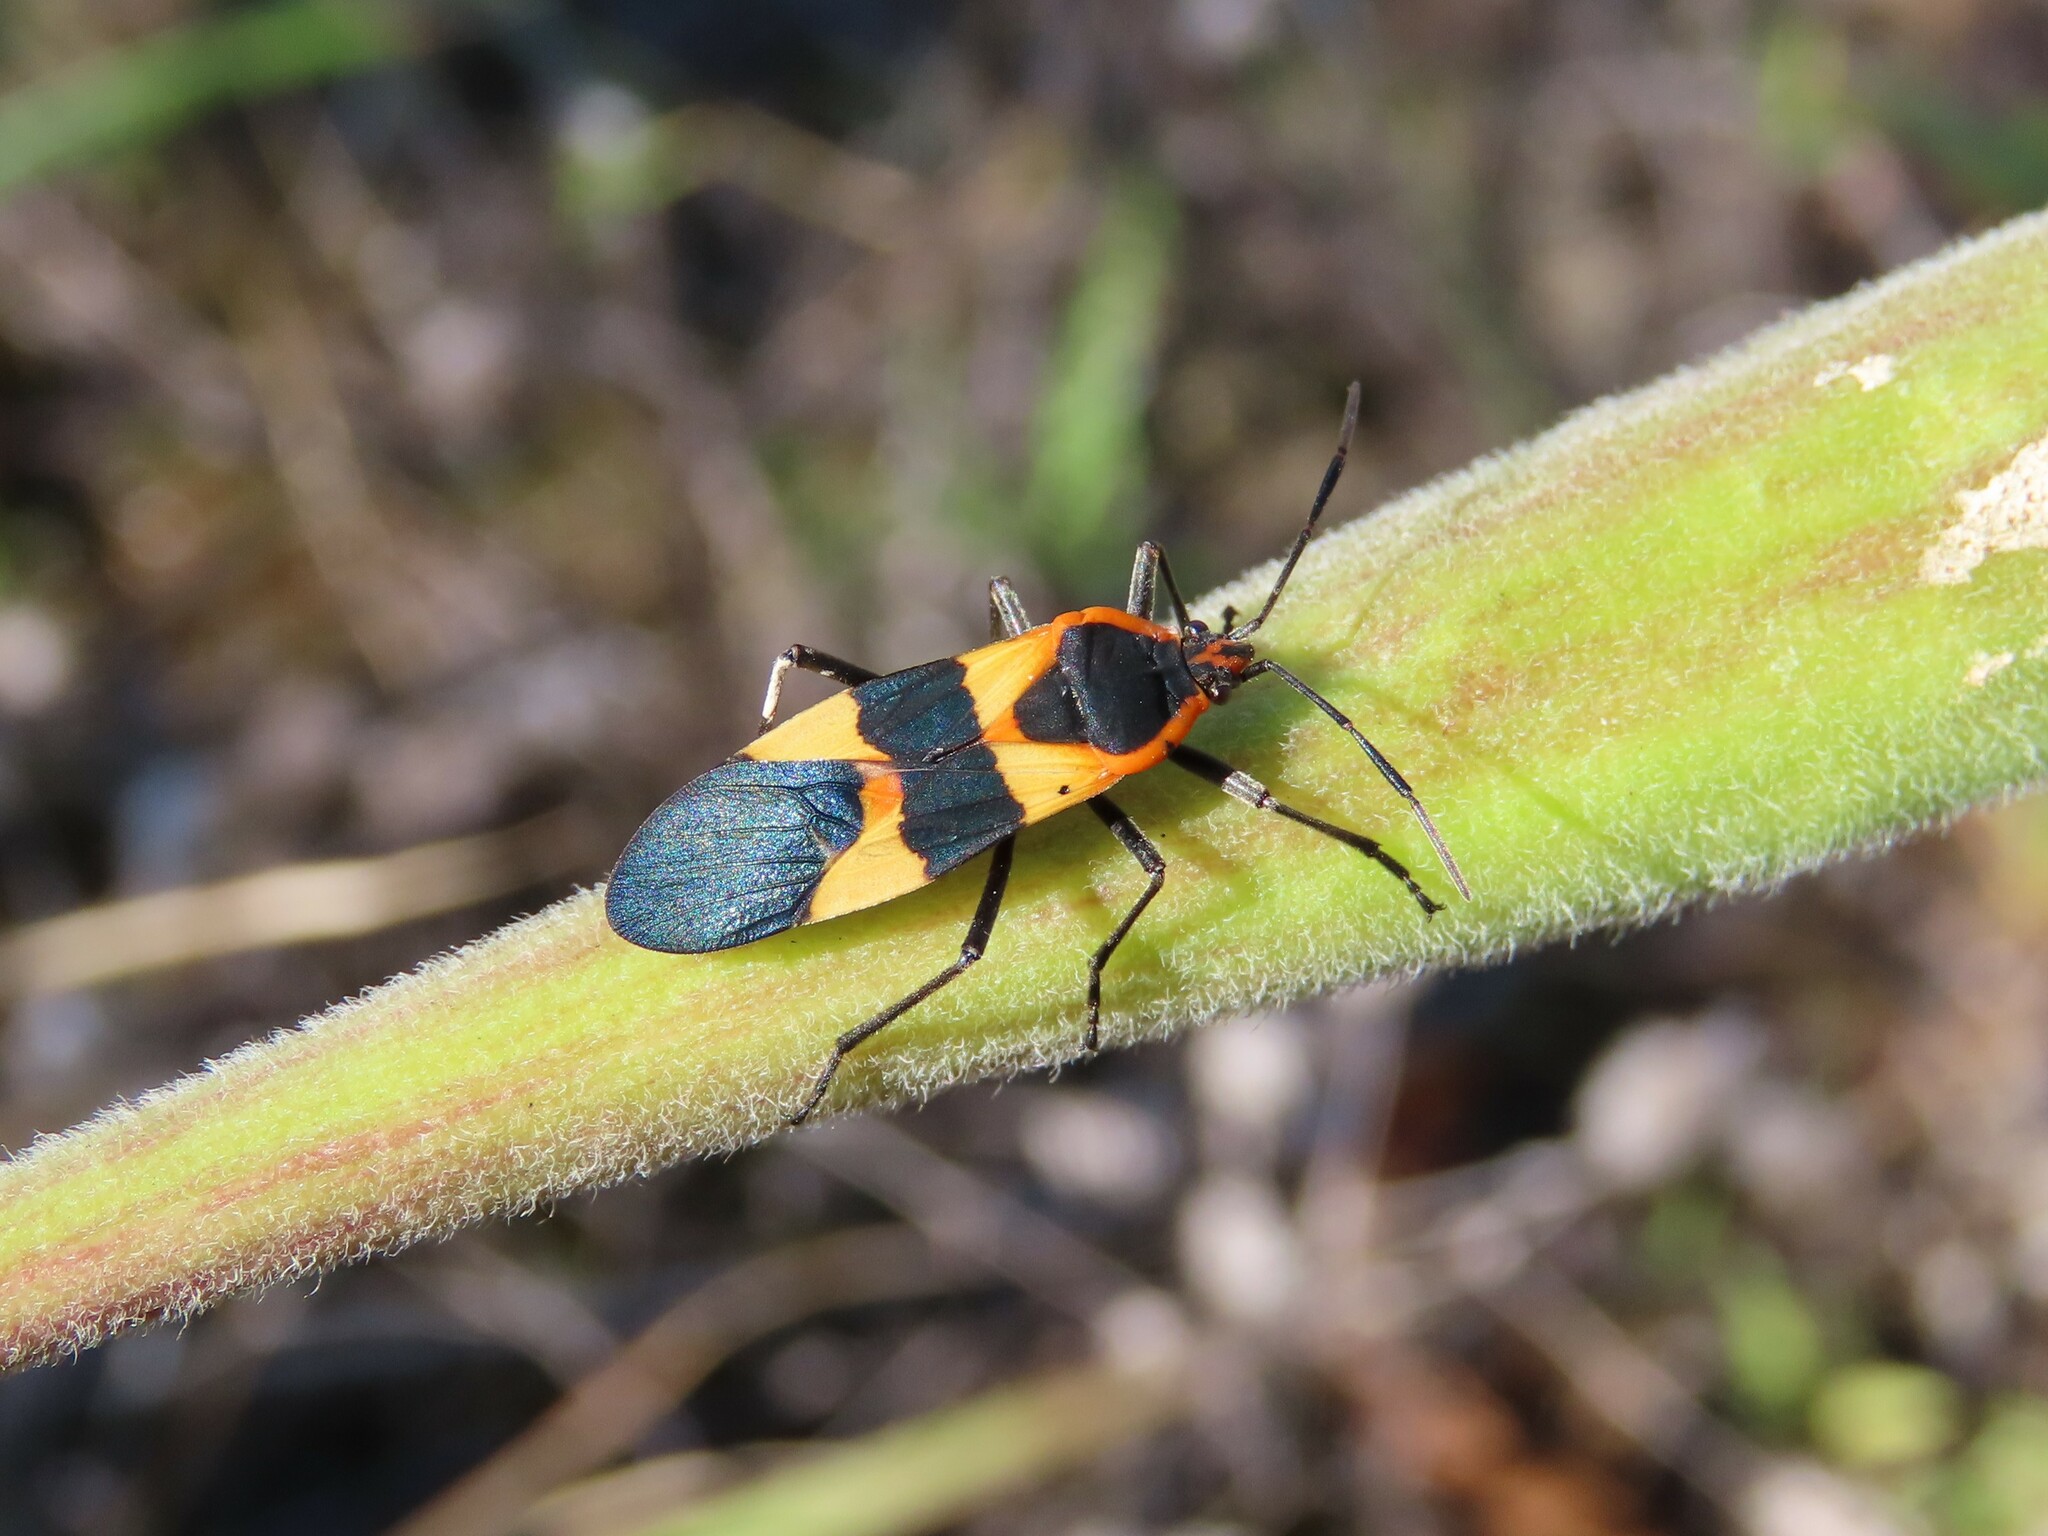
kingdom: Animalia
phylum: Arthropoda
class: Insecta
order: Hemiptera
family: Lygaeidae
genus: Oncopeltus
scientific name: Oncopeltus fasciatus
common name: Large milkweed bug
